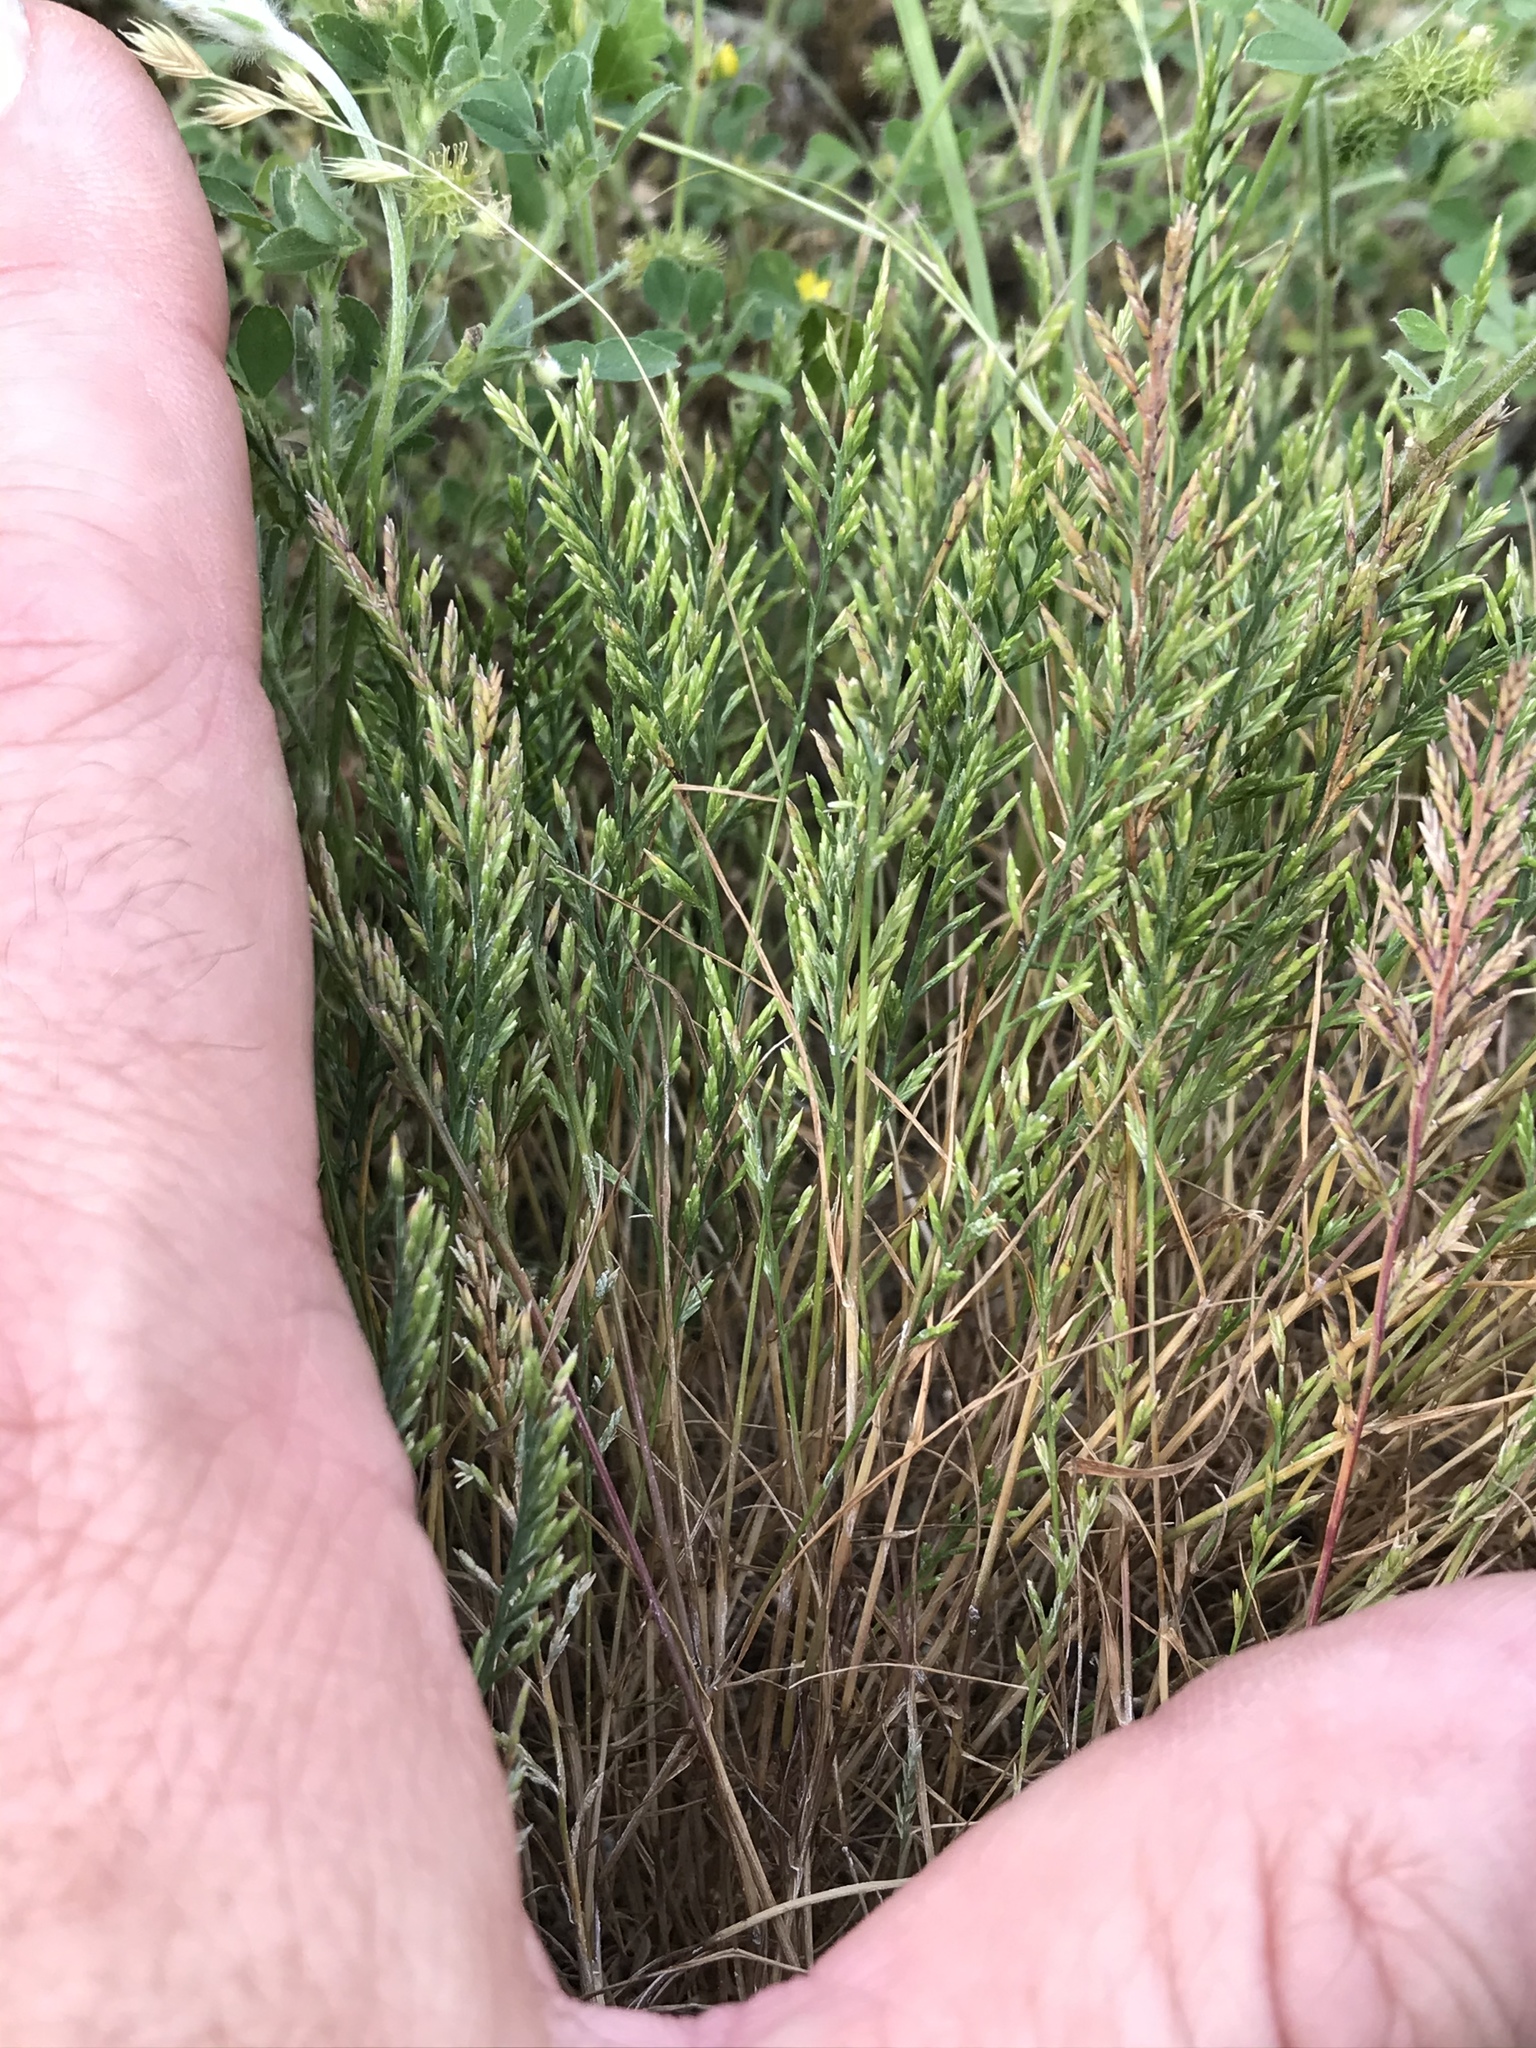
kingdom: Plantae
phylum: Tracheophyta
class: Liliopsida
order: Poales
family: Poaceae
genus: Catapodium
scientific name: Catapodium rigidum
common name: Fern-grass
